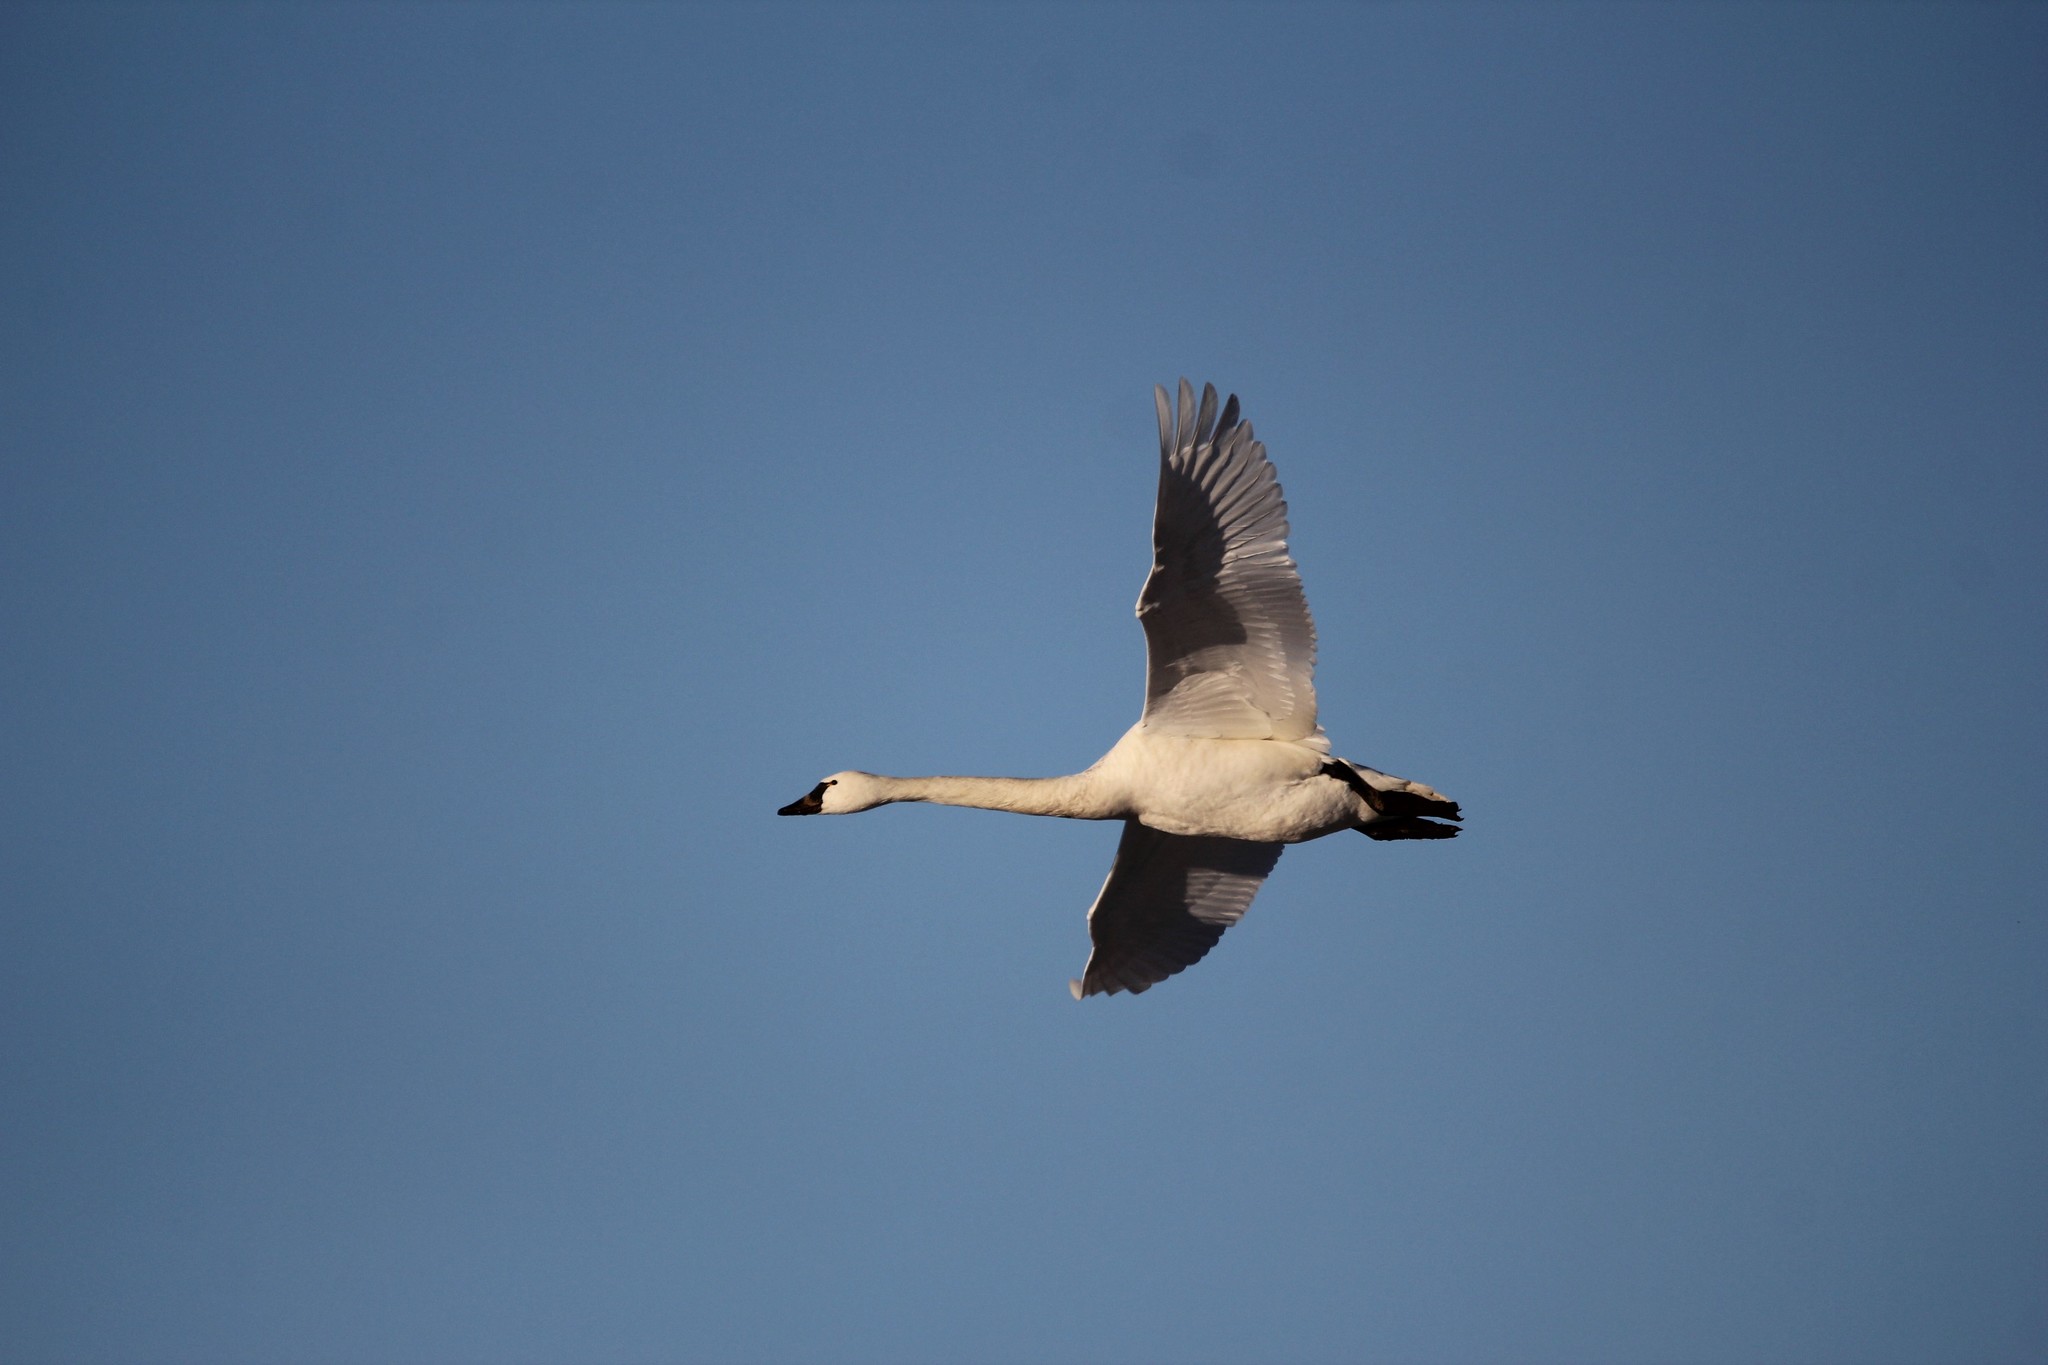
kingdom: Animalia
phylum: Chordata
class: Aves
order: Anseriformes
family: Anatidae
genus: Cygnus
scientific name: Cygnus columbianus
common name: Tundra swan
